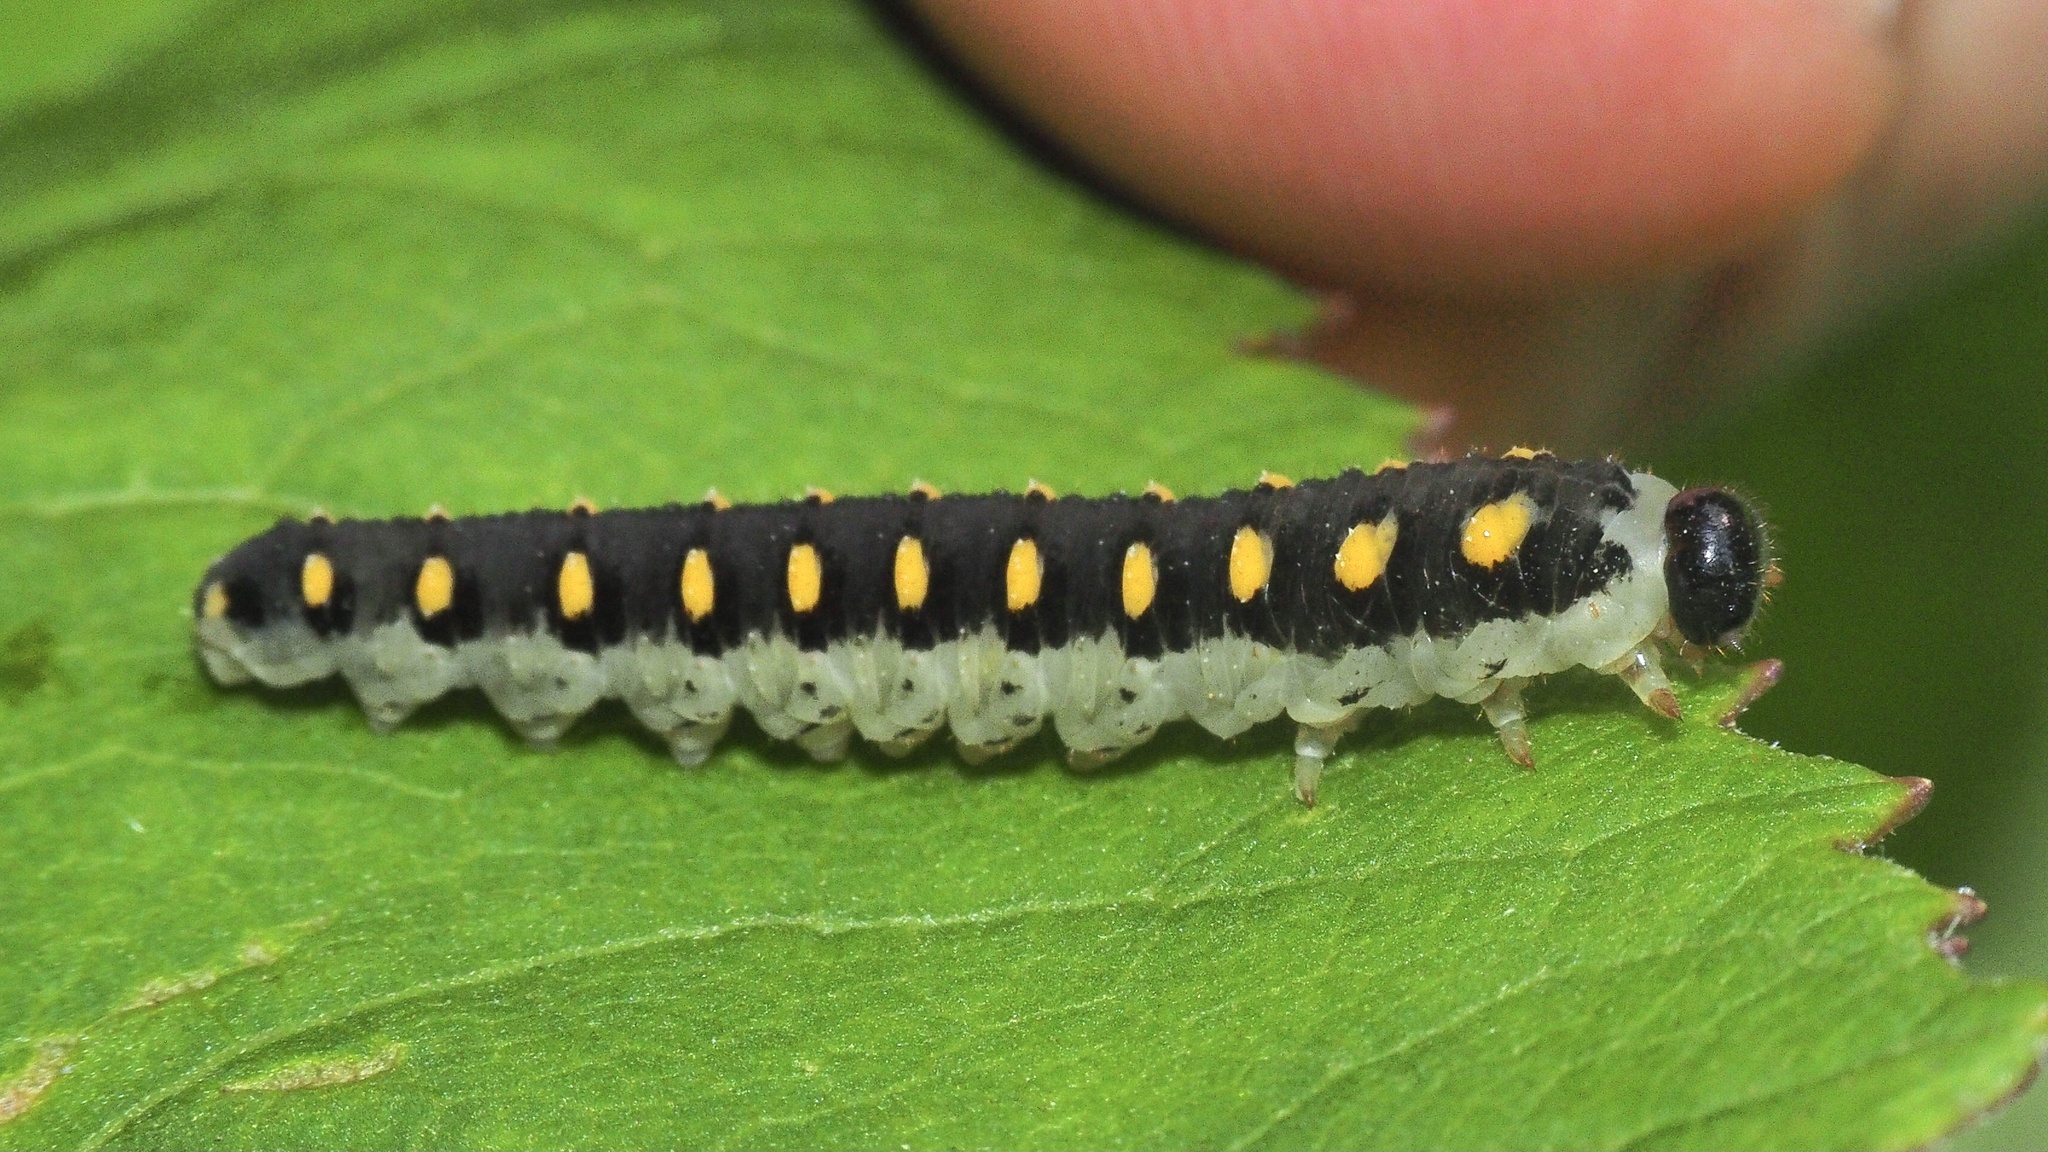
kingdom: Animalia
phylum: Arthropoda
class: Insecta
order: Hymenoptera
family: Tenthredinidae
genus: Tenthredo
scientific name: Tenthredo mandibularis
